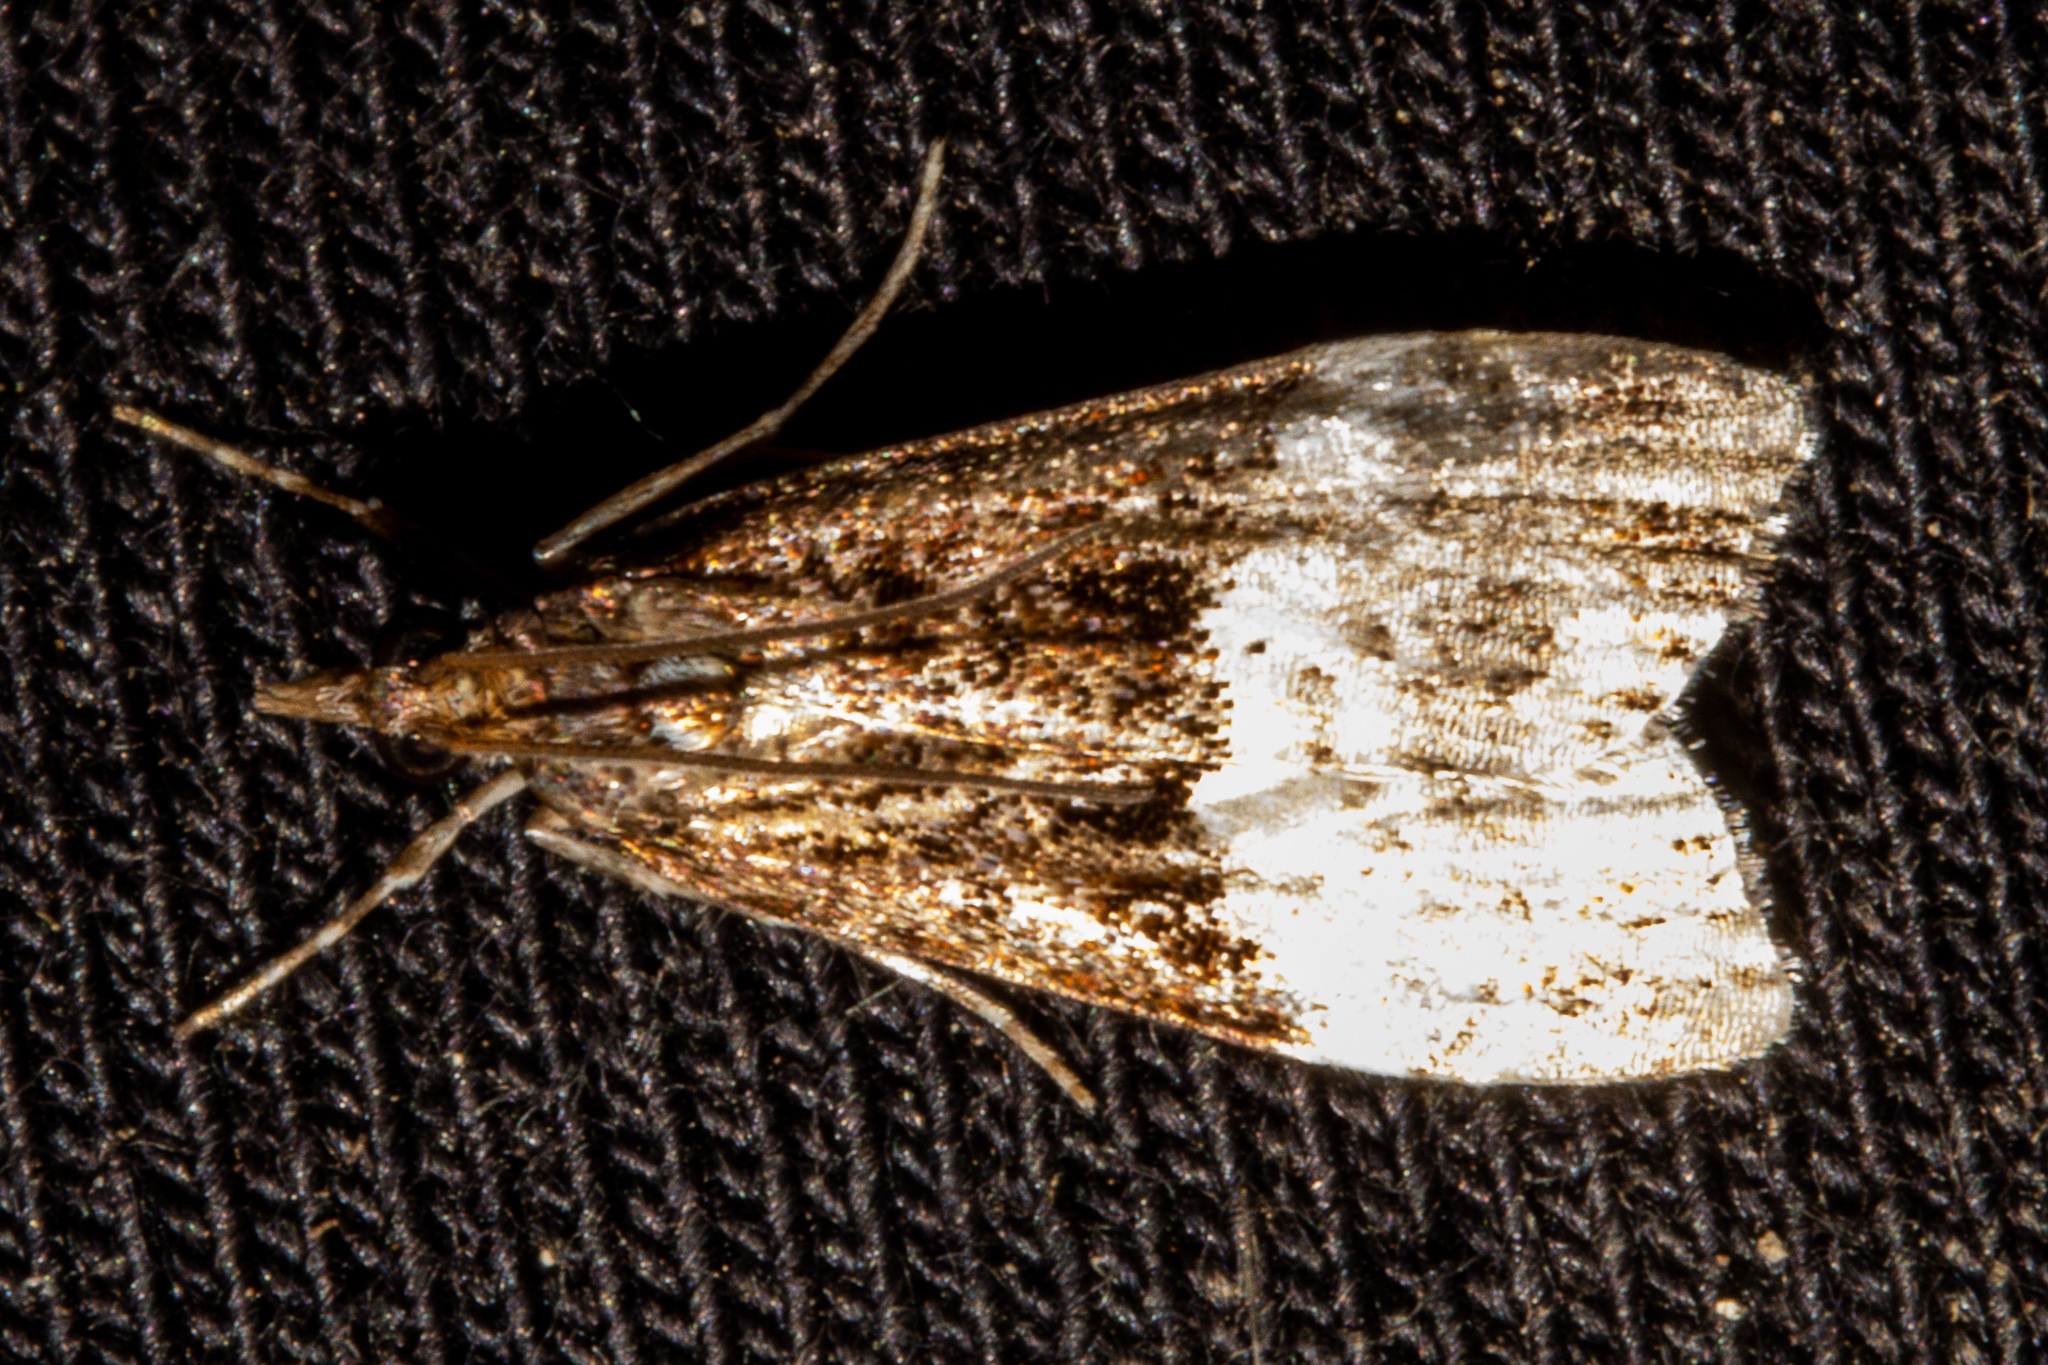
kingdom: Animalia
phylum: Arthropoda
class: Insecta
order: Lepidoptera
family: Crambidae
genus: Scoparia
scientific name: Scoparia minusculalis
